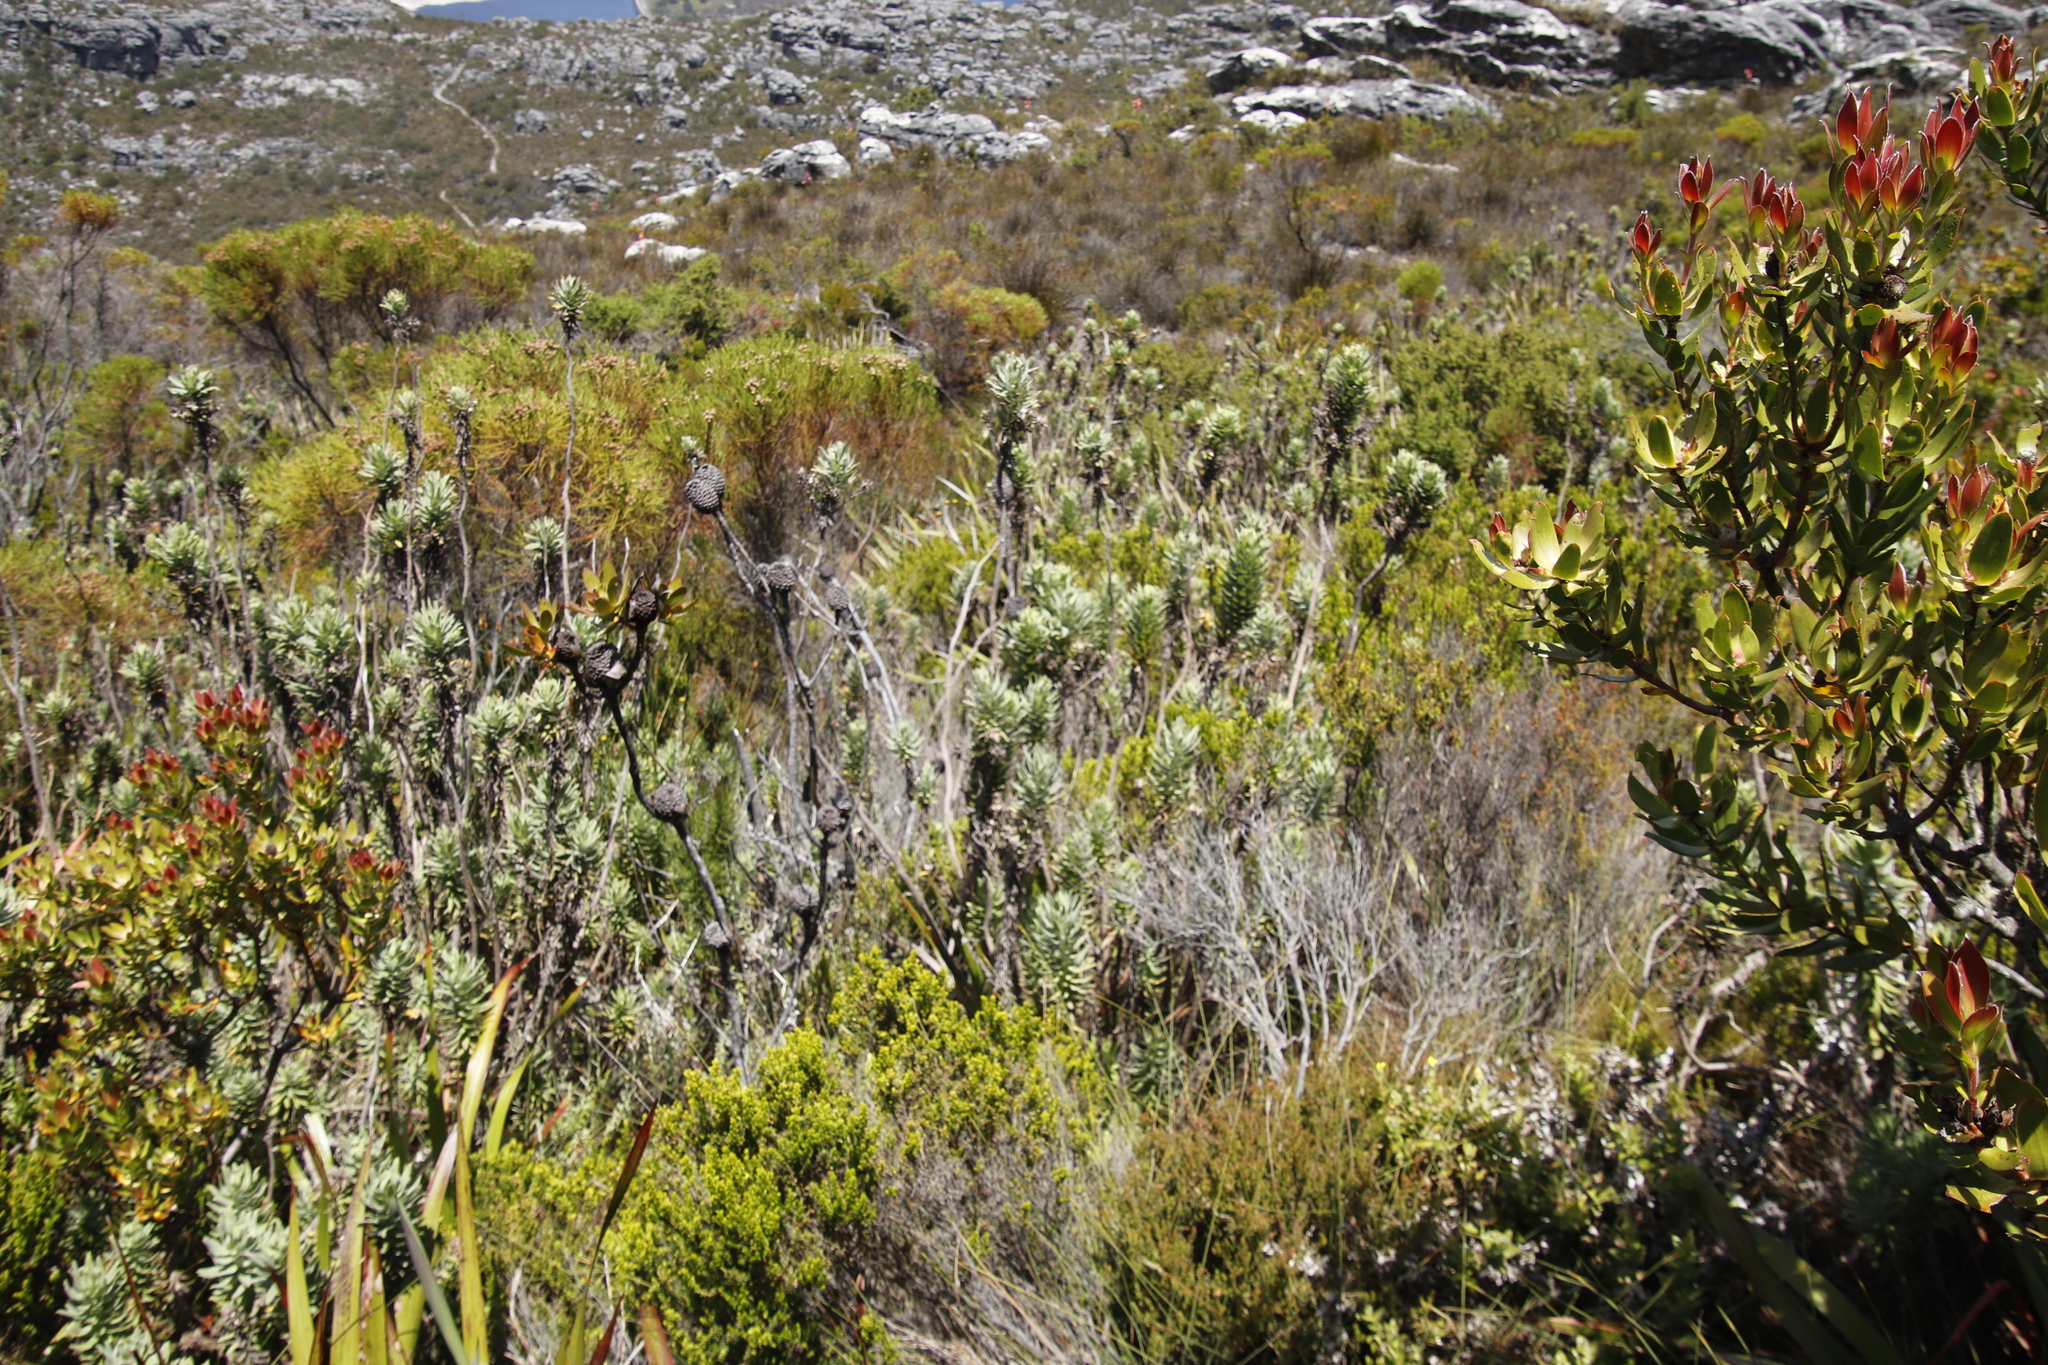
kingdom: Plantae
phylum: Tracheophyta
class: Magnoliopsida
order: Asterales
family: Asteraceae
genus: Osmitopsis
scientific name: Osmitopsis asteriscoides
